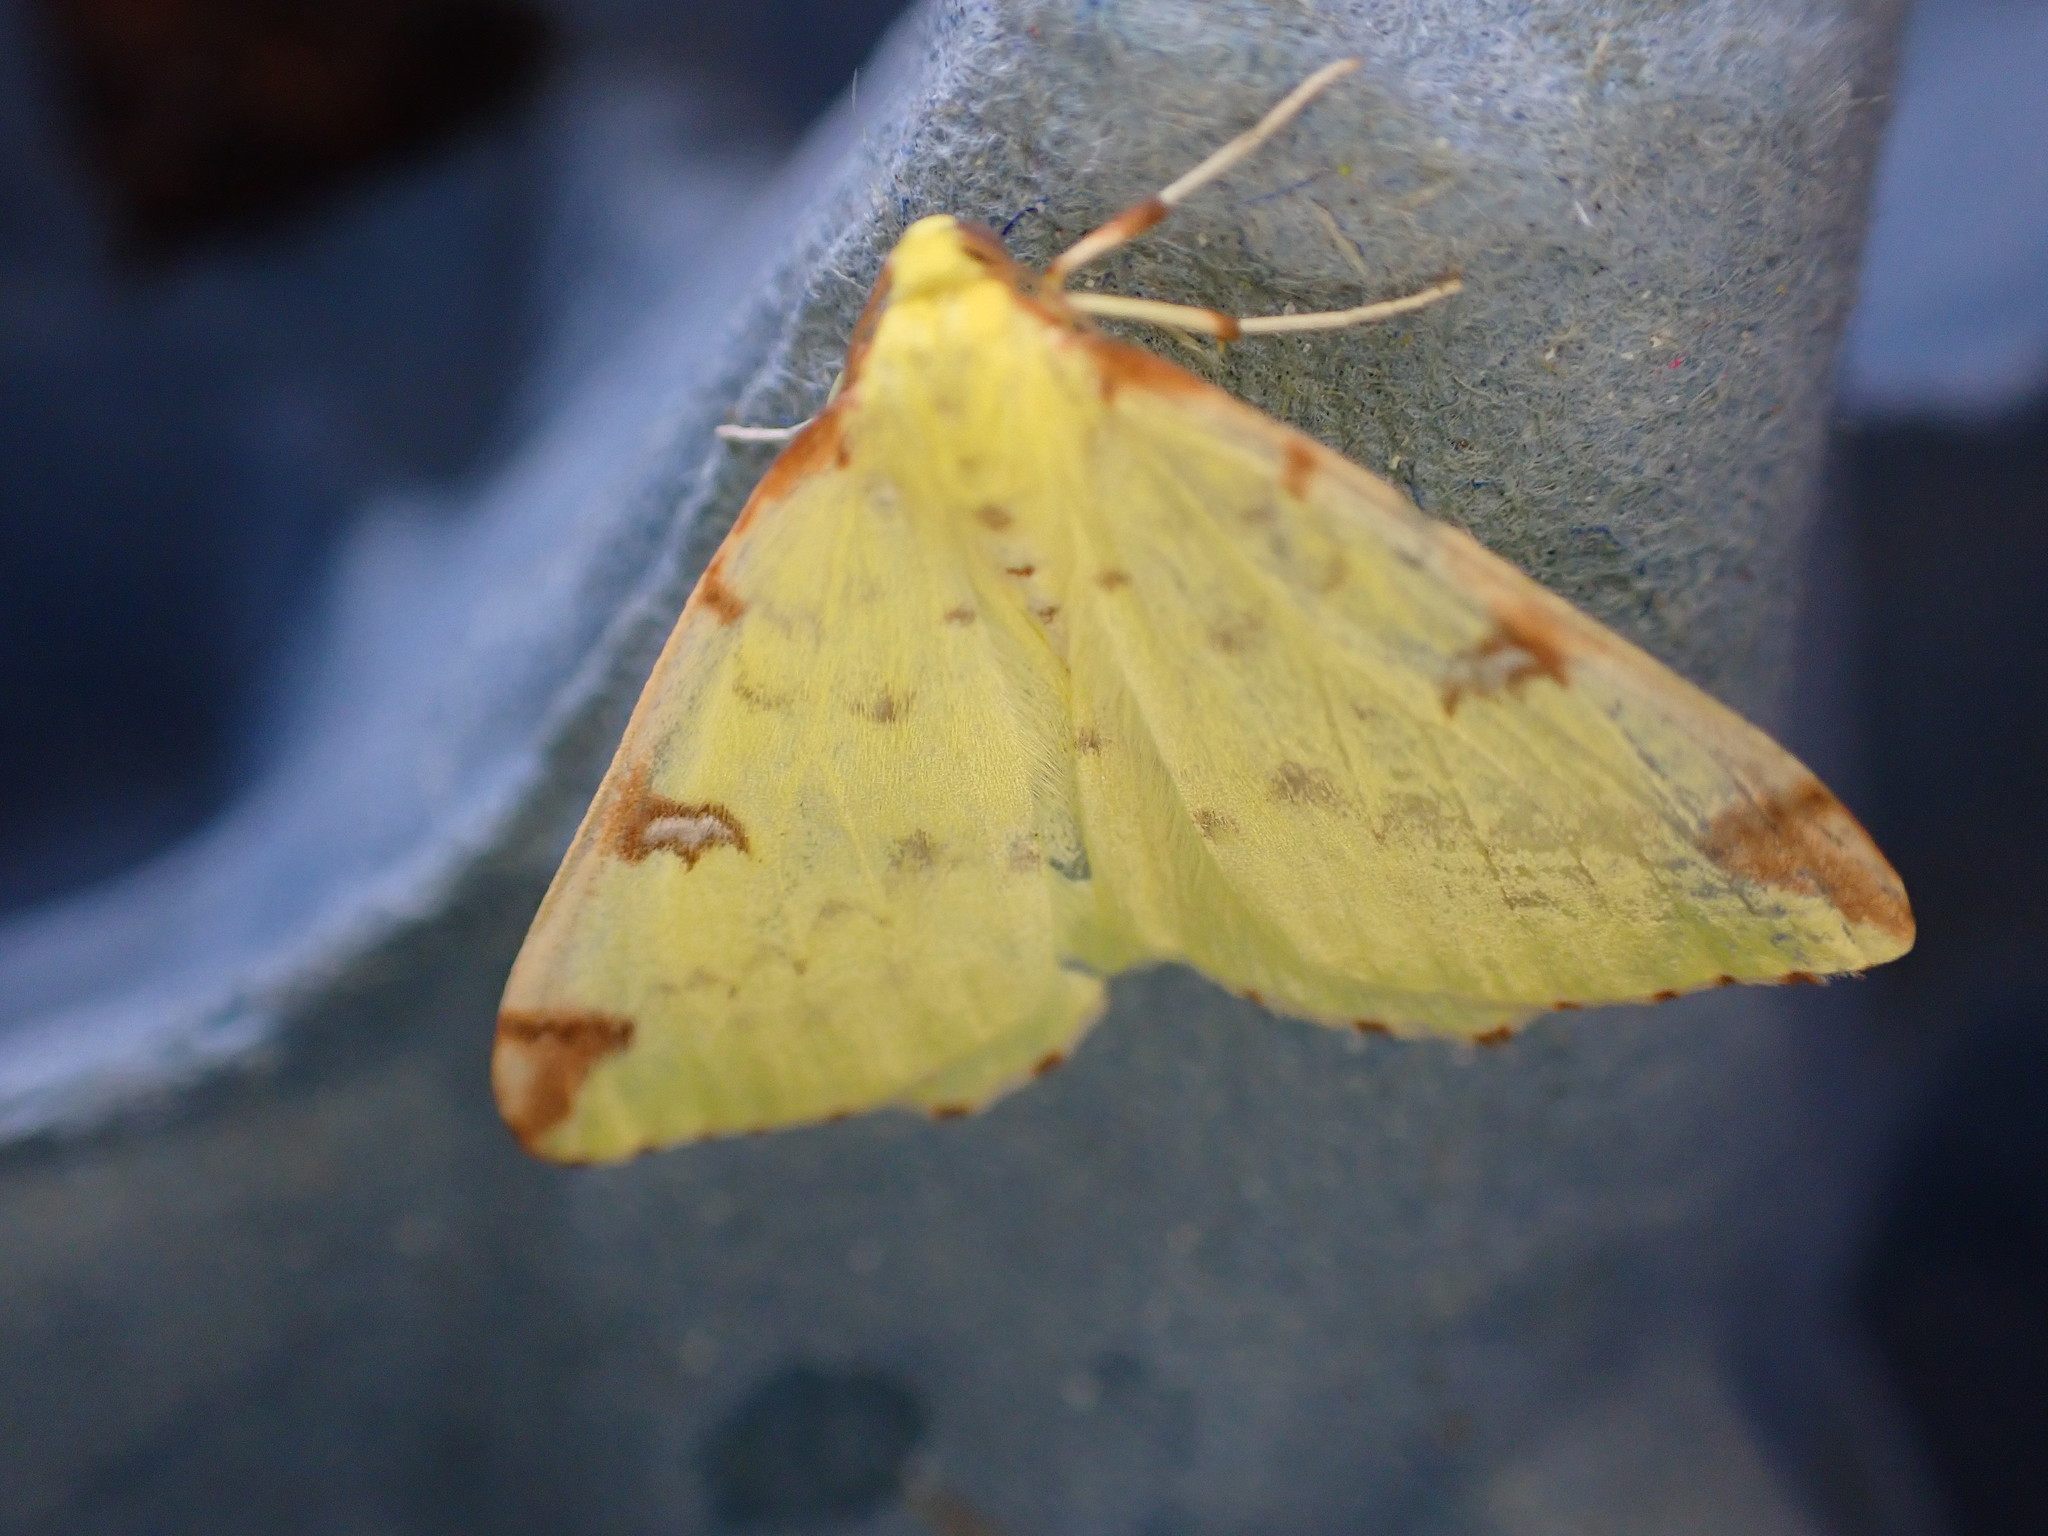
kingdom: Animalia
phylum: Arthropoda
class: Insecta
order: Lepidoptera
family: Geometridae
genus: Opisthograptis
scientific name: Opisthograptis luteolata
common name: Brimstone moth
